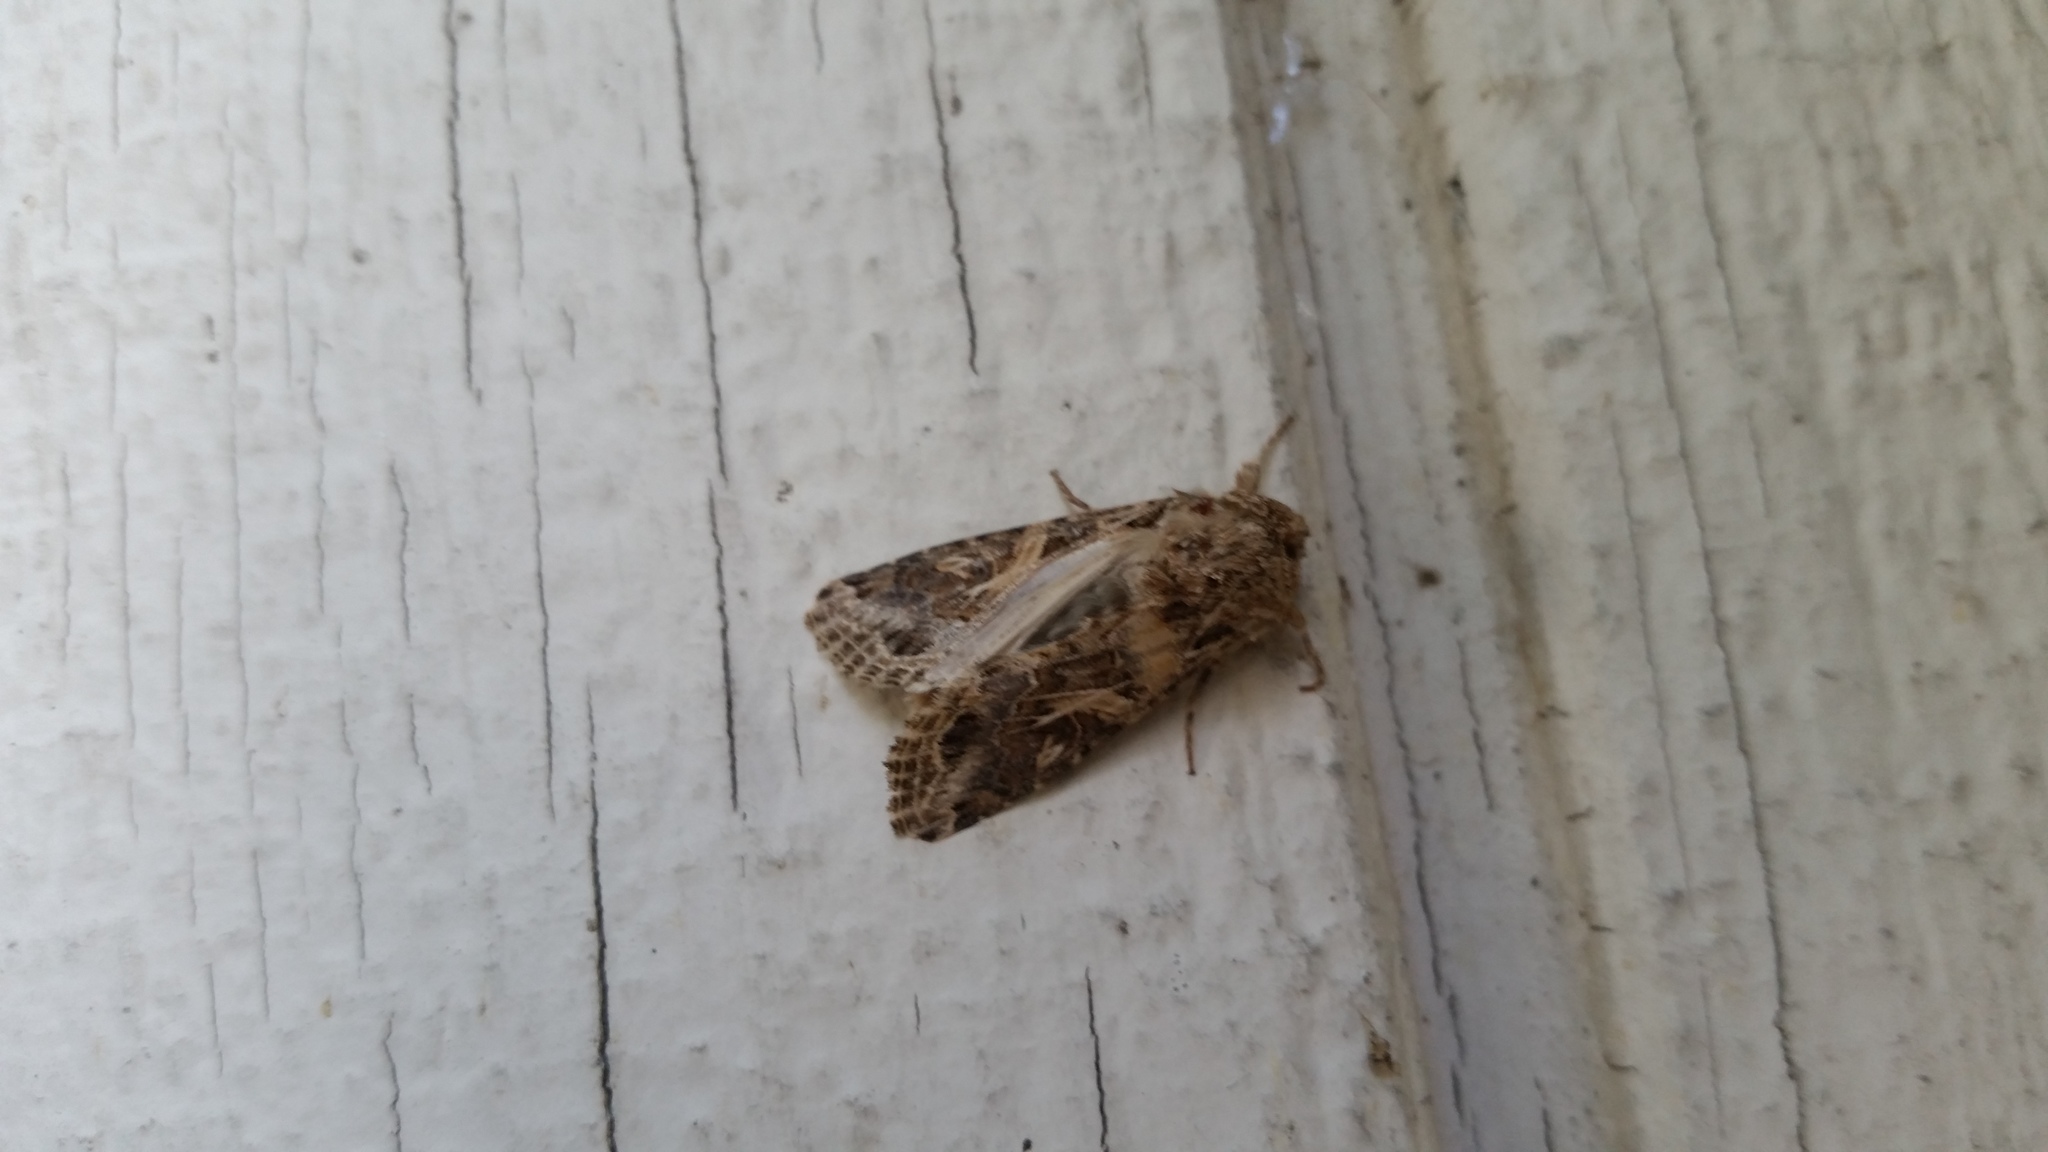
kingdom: Animalia
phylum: Arthropoda
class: Insecta
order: Lepidoptera
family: Noctuidae
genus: Spodoptera
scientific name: Spodoptera praefica
